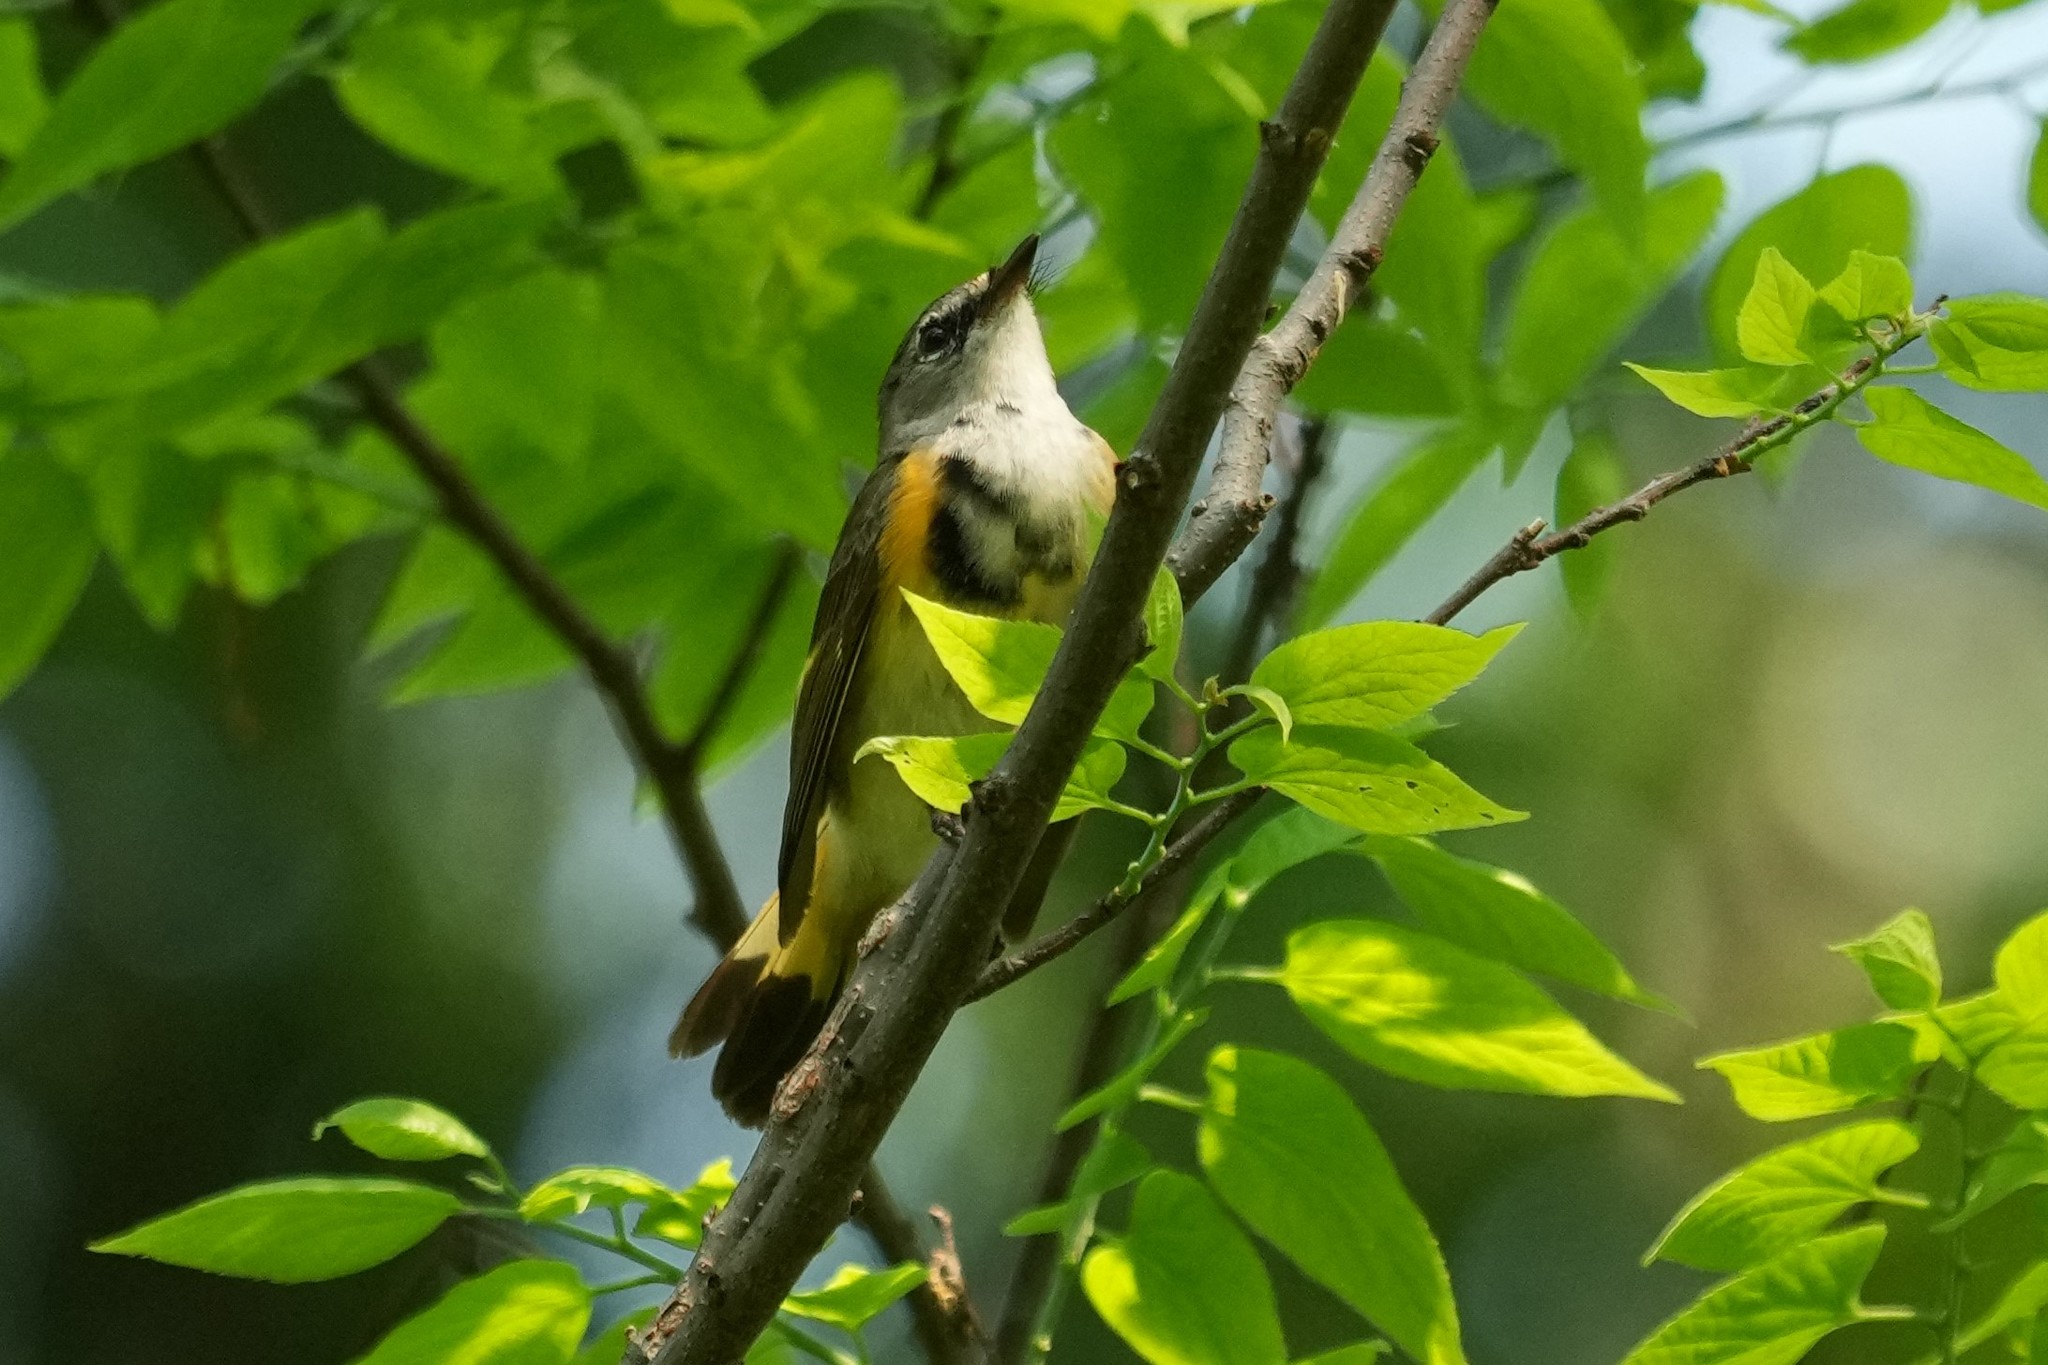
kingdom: Animalia
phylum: Chordata
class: Aves
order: Passeriformes
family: Parulidae
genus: Setophaga
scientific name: Setophaga ruticilla
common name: American redstart
